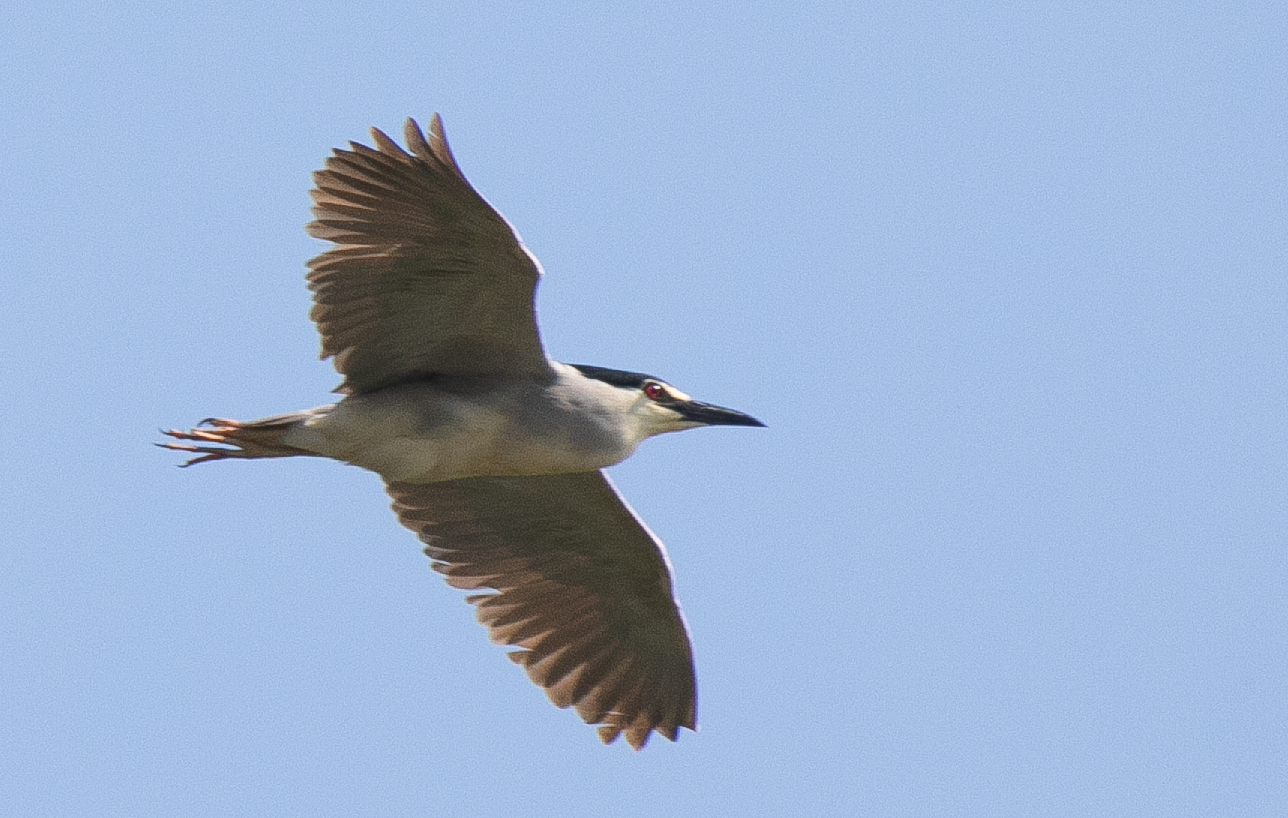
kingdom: Animalia
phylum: Chordata
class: Aves
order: Pelecaniformes
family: Ardeidae
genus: Nycticorax
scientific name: Nycticorax nycticorax
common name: Black-crowned night heron
